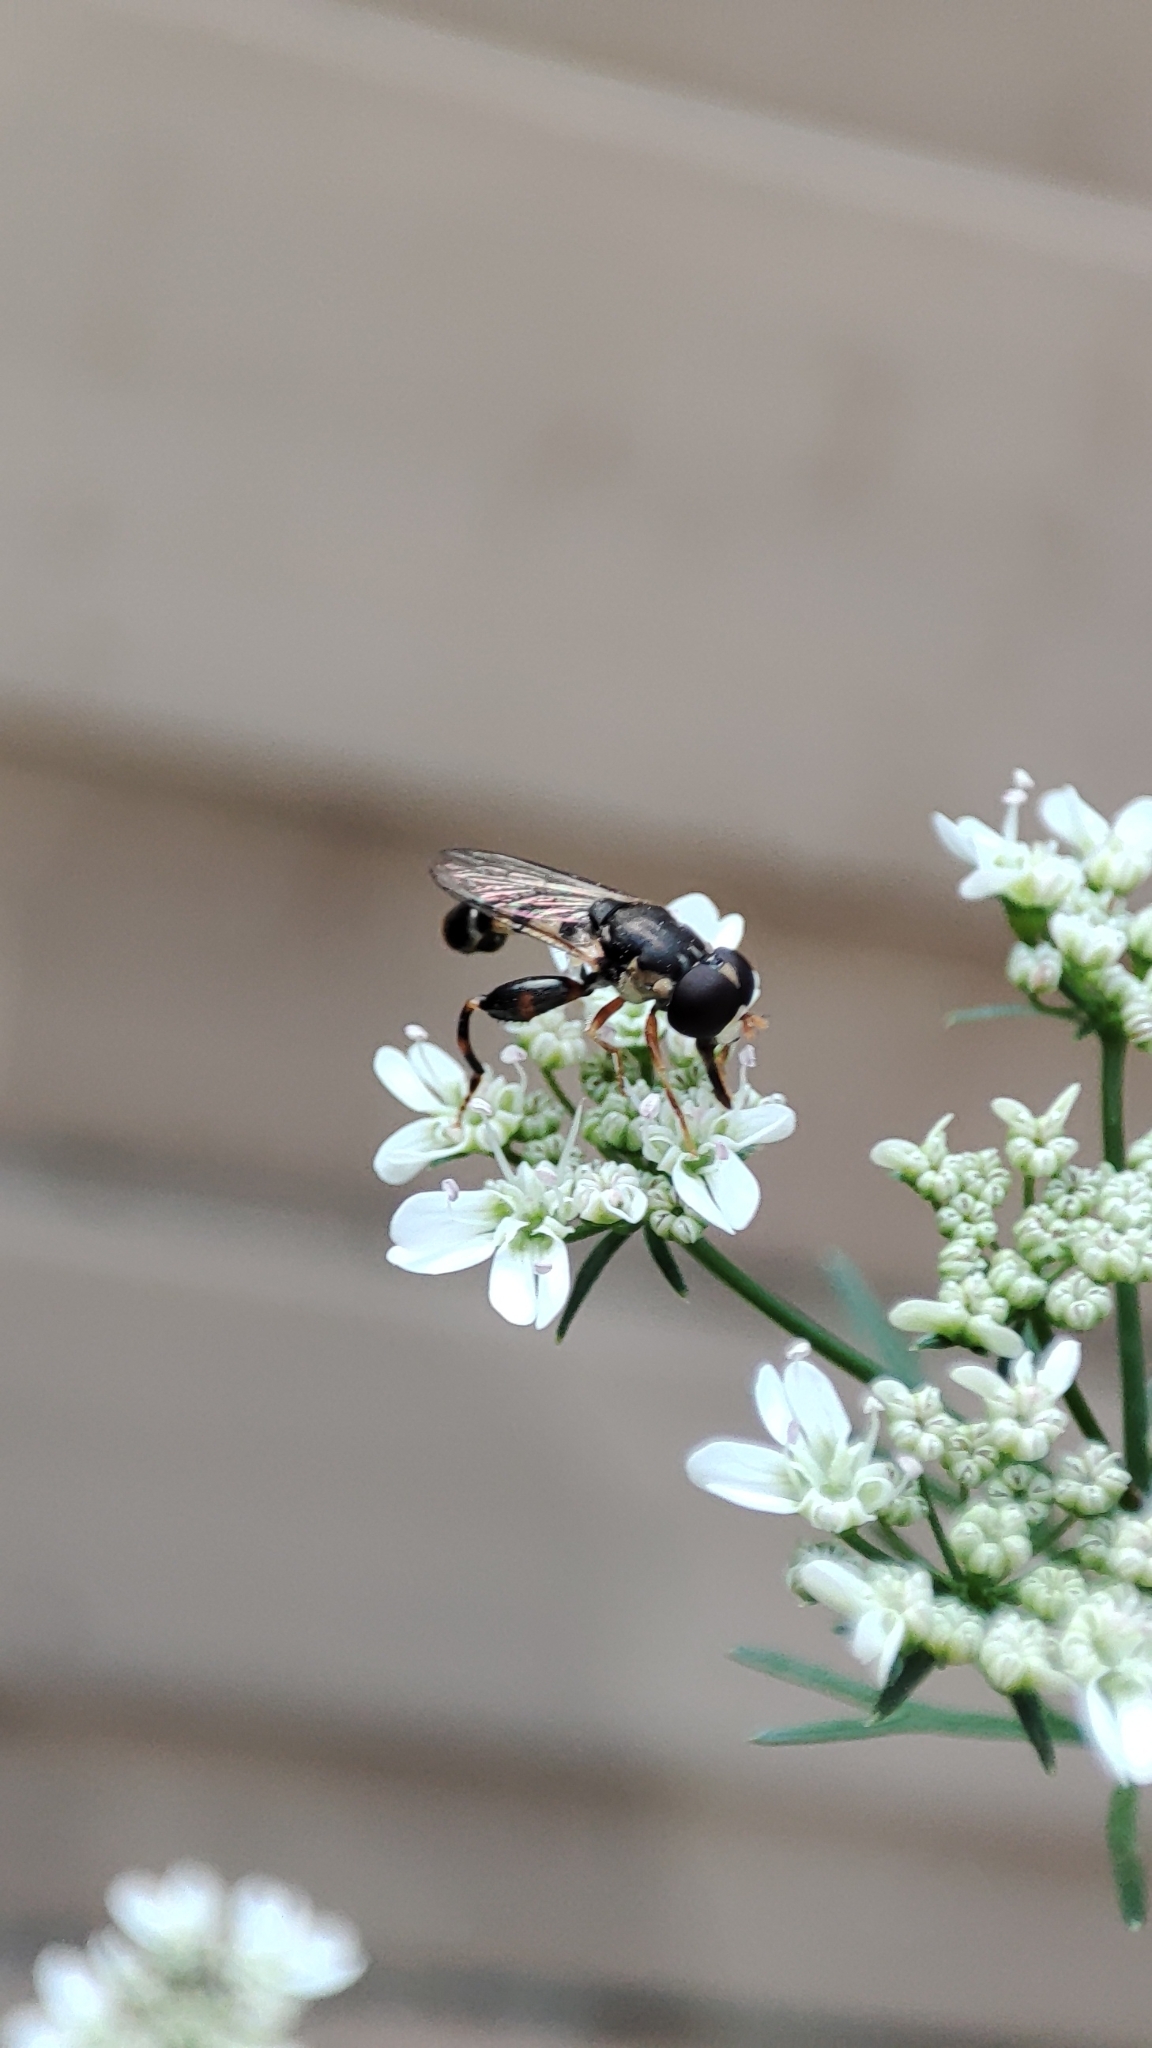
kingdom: Animalia
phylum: Arthropoda
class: Insecta
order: Diptera
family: Syrphidae
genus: Syritta
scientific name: Syritta pipiens
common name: Hover fly
